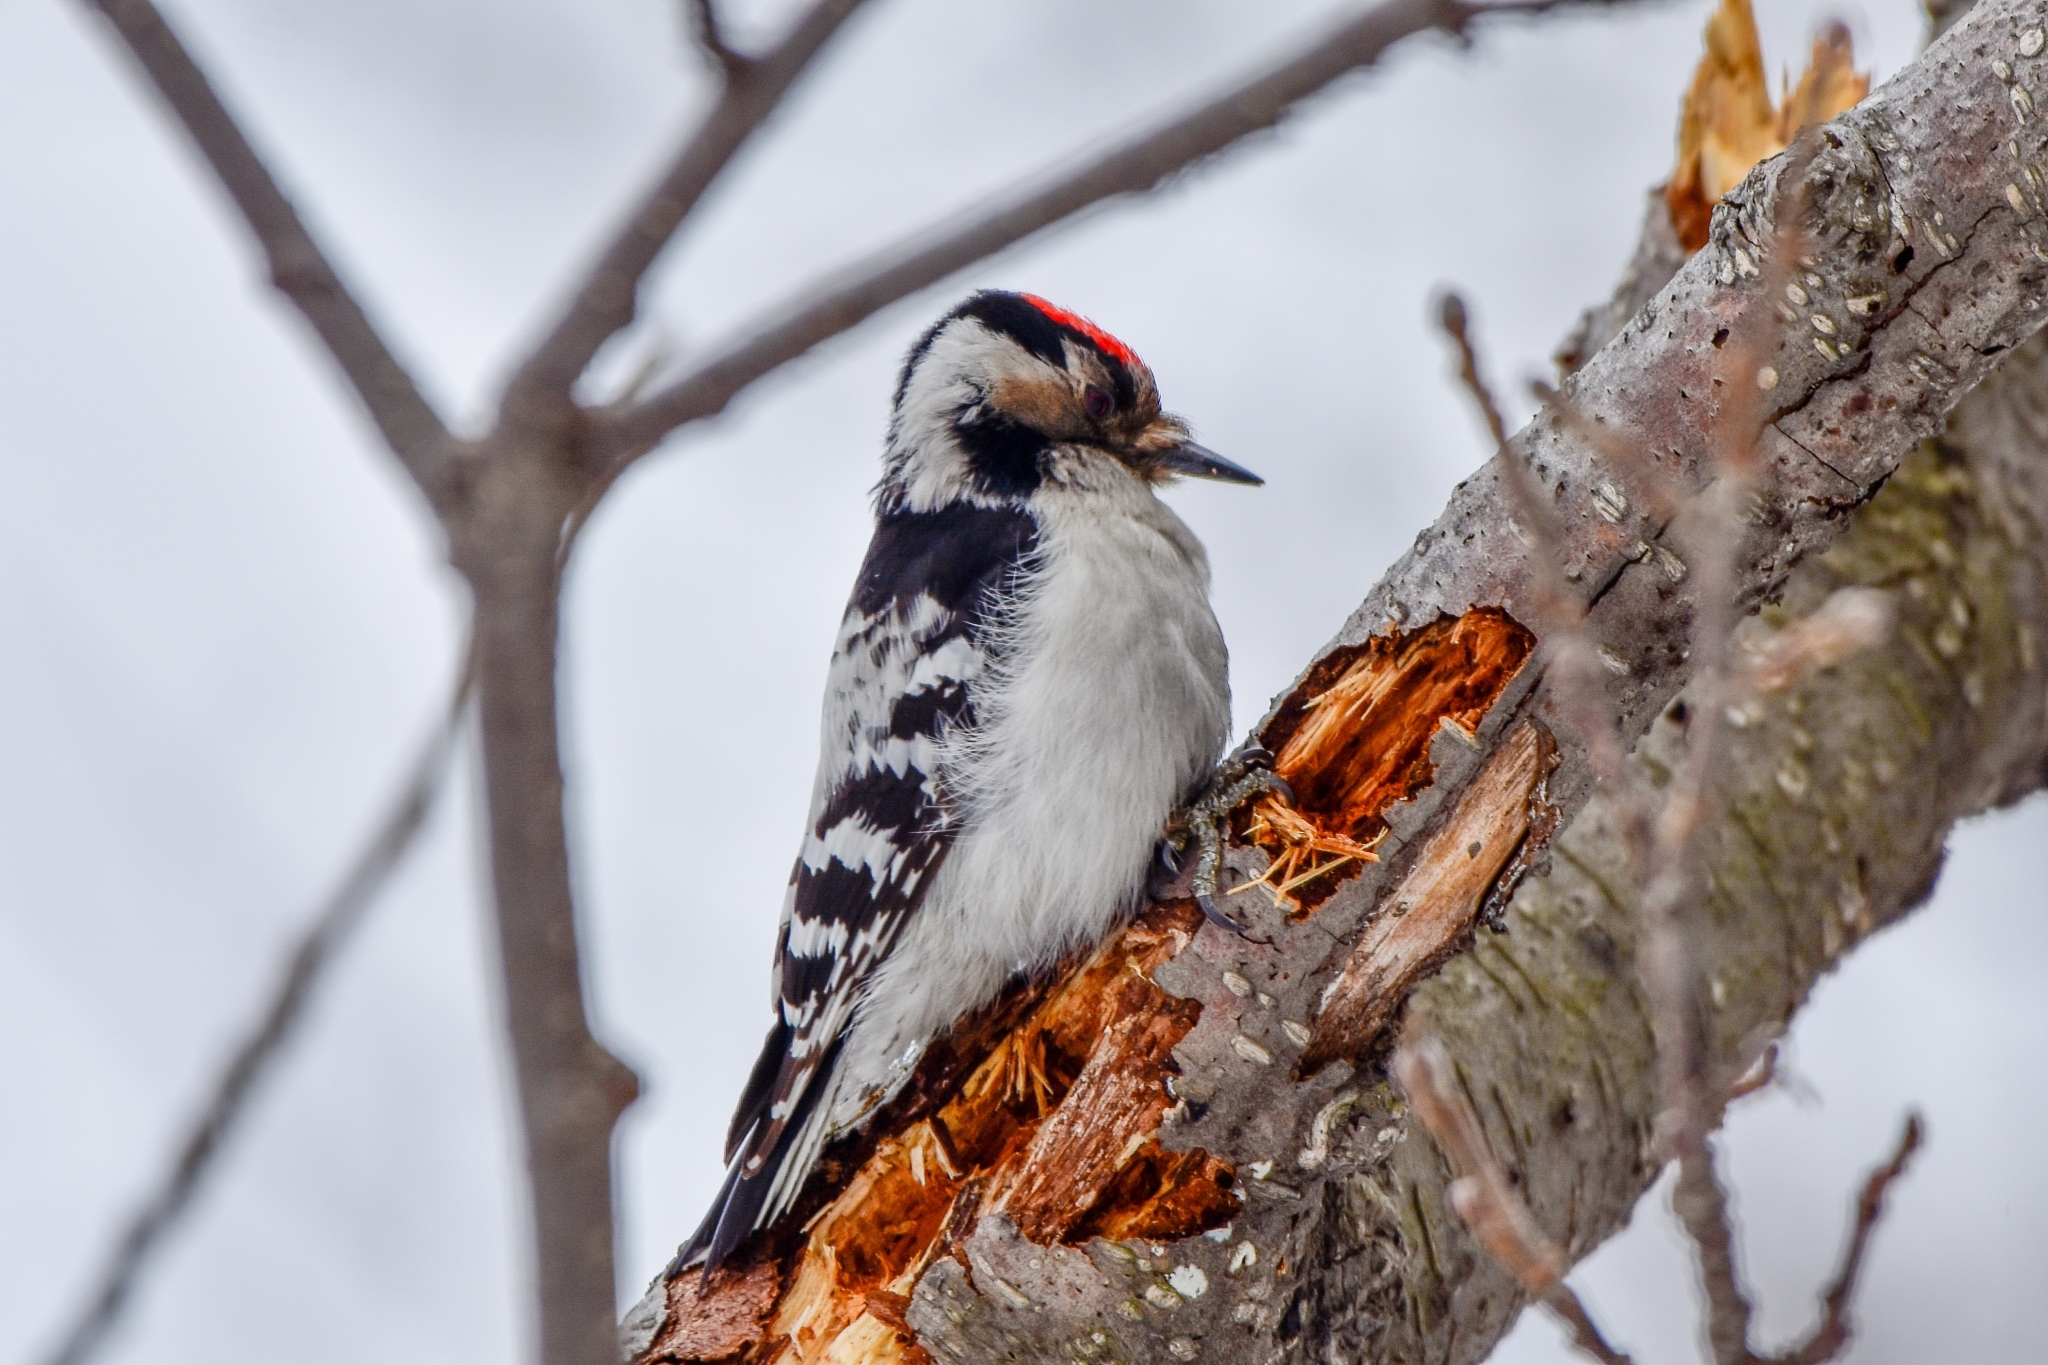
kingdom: Animalia
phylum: Chordata
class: Aves
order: Piciformes
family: Picidae
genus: Dryobates
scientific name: Dryobates minor
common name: Lesser spotted woodpecker
